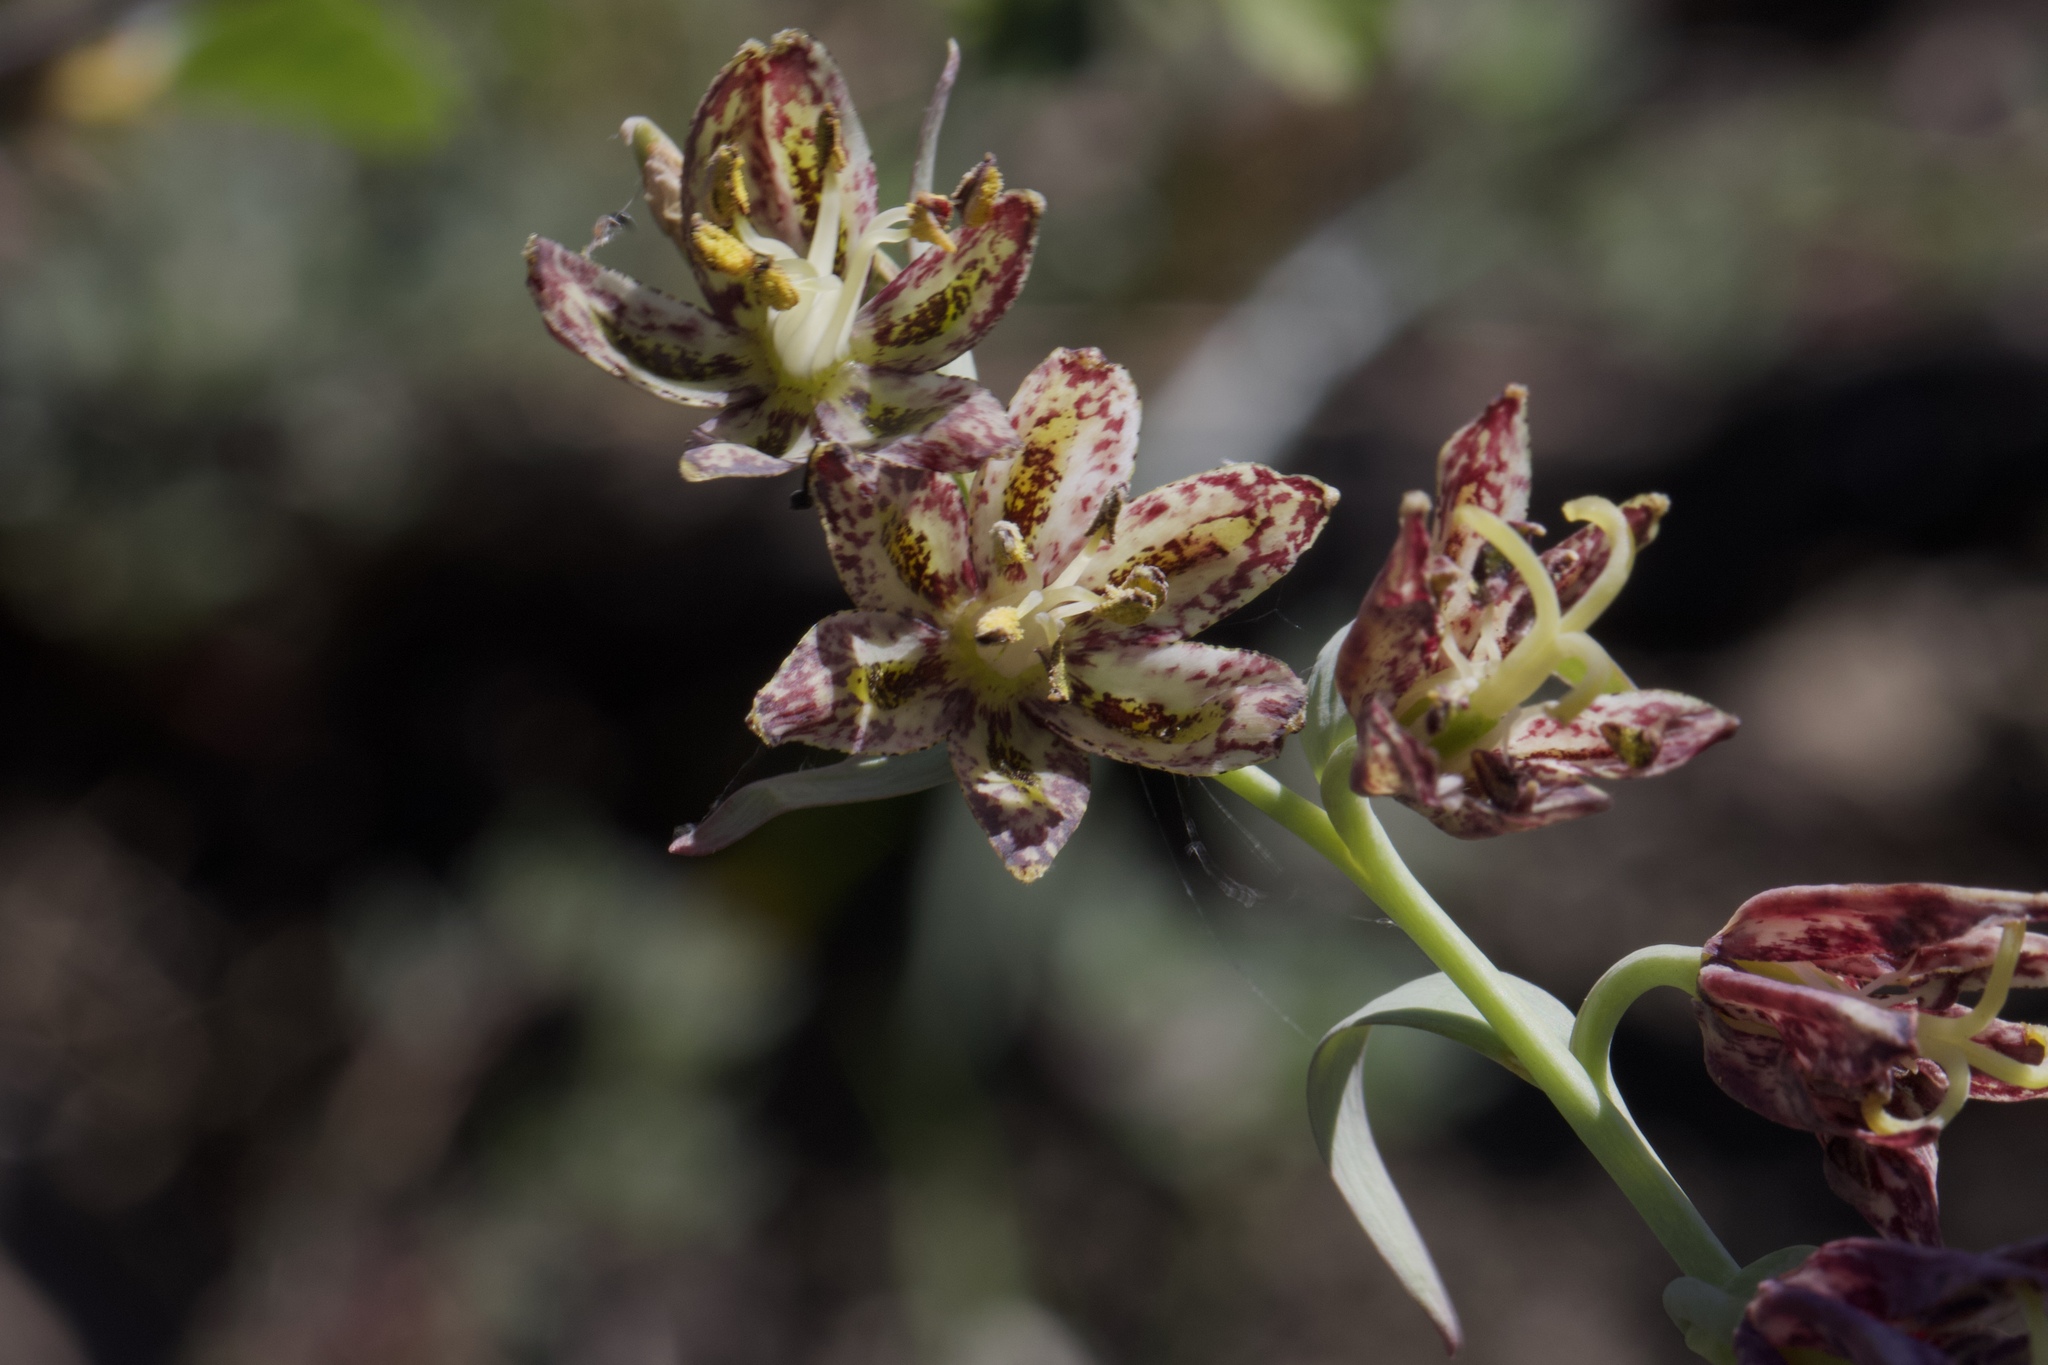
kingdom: Plantae
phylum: Tracheophyta
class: Liliopsida
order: Liliales
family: Liliaceae
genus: Fritillaria
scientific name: Fritillaria affinis
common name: Ojai fritillary
